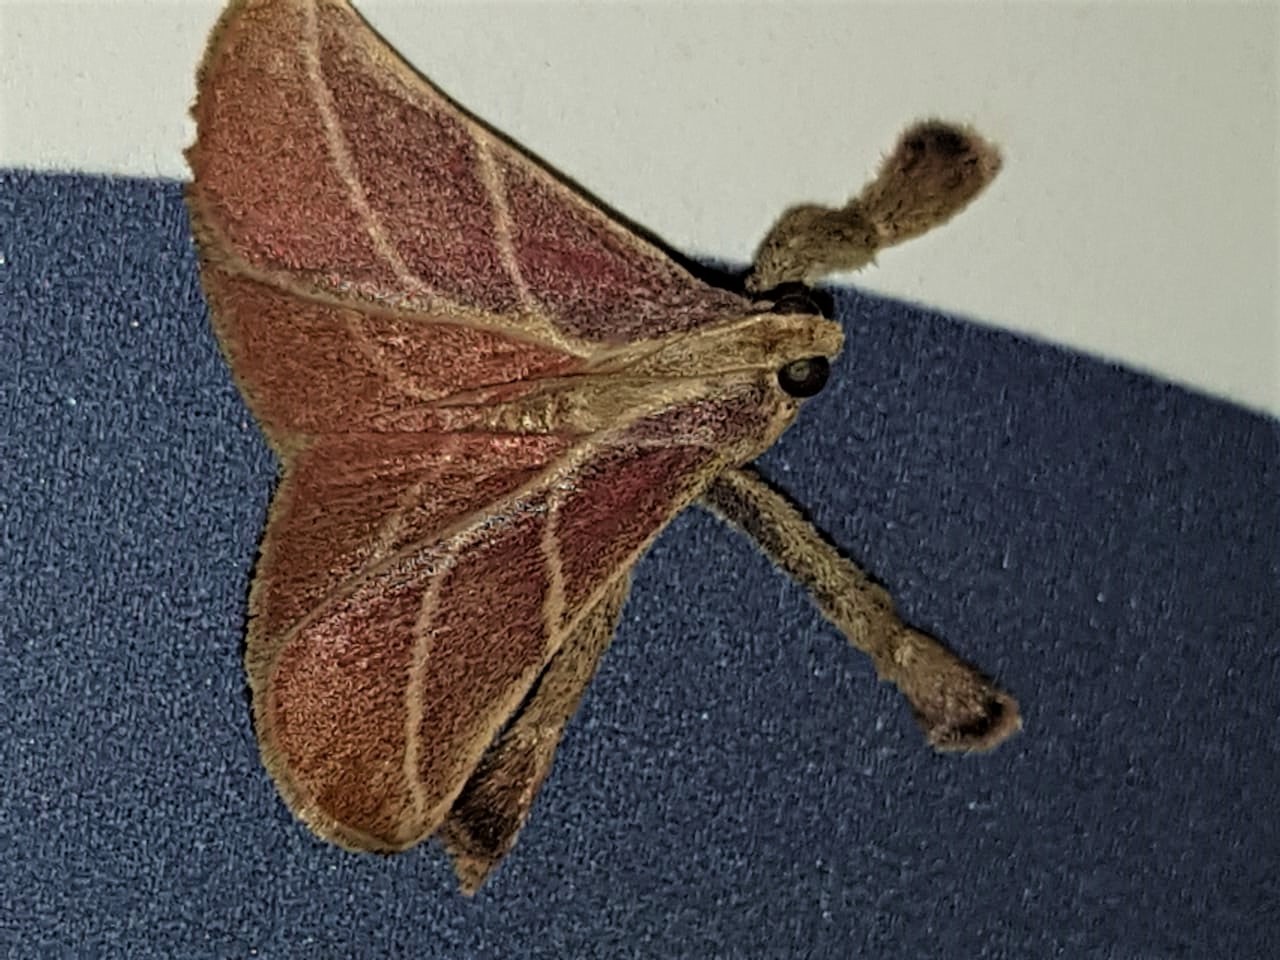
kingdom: Animalia
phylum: Arthropoda
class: Insecta
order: Lepidoptera
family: Pyralidae
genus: Pachypodistes
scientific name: Pachypodistes goeldii
